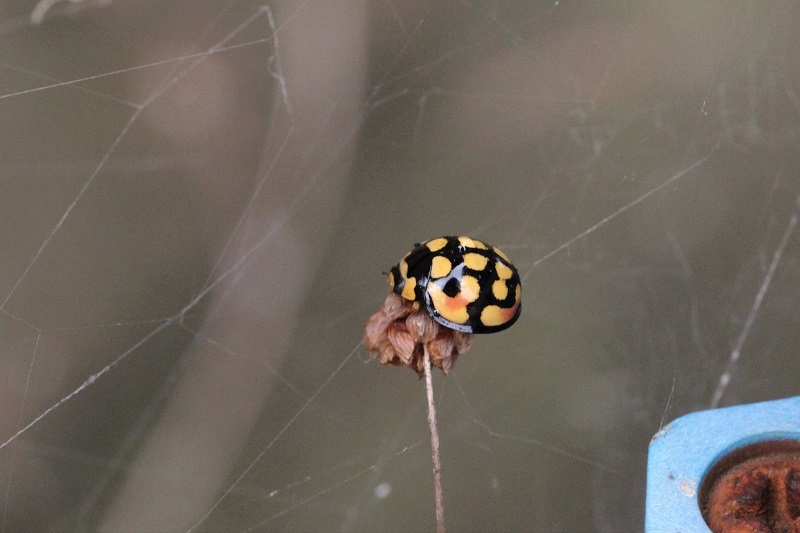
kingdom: Animalia
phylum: Arthropoda
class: Insecta
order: Coleoptera
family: Coccinellidae
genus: Cheilomenes
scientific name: Cheilomenes sulphurea
